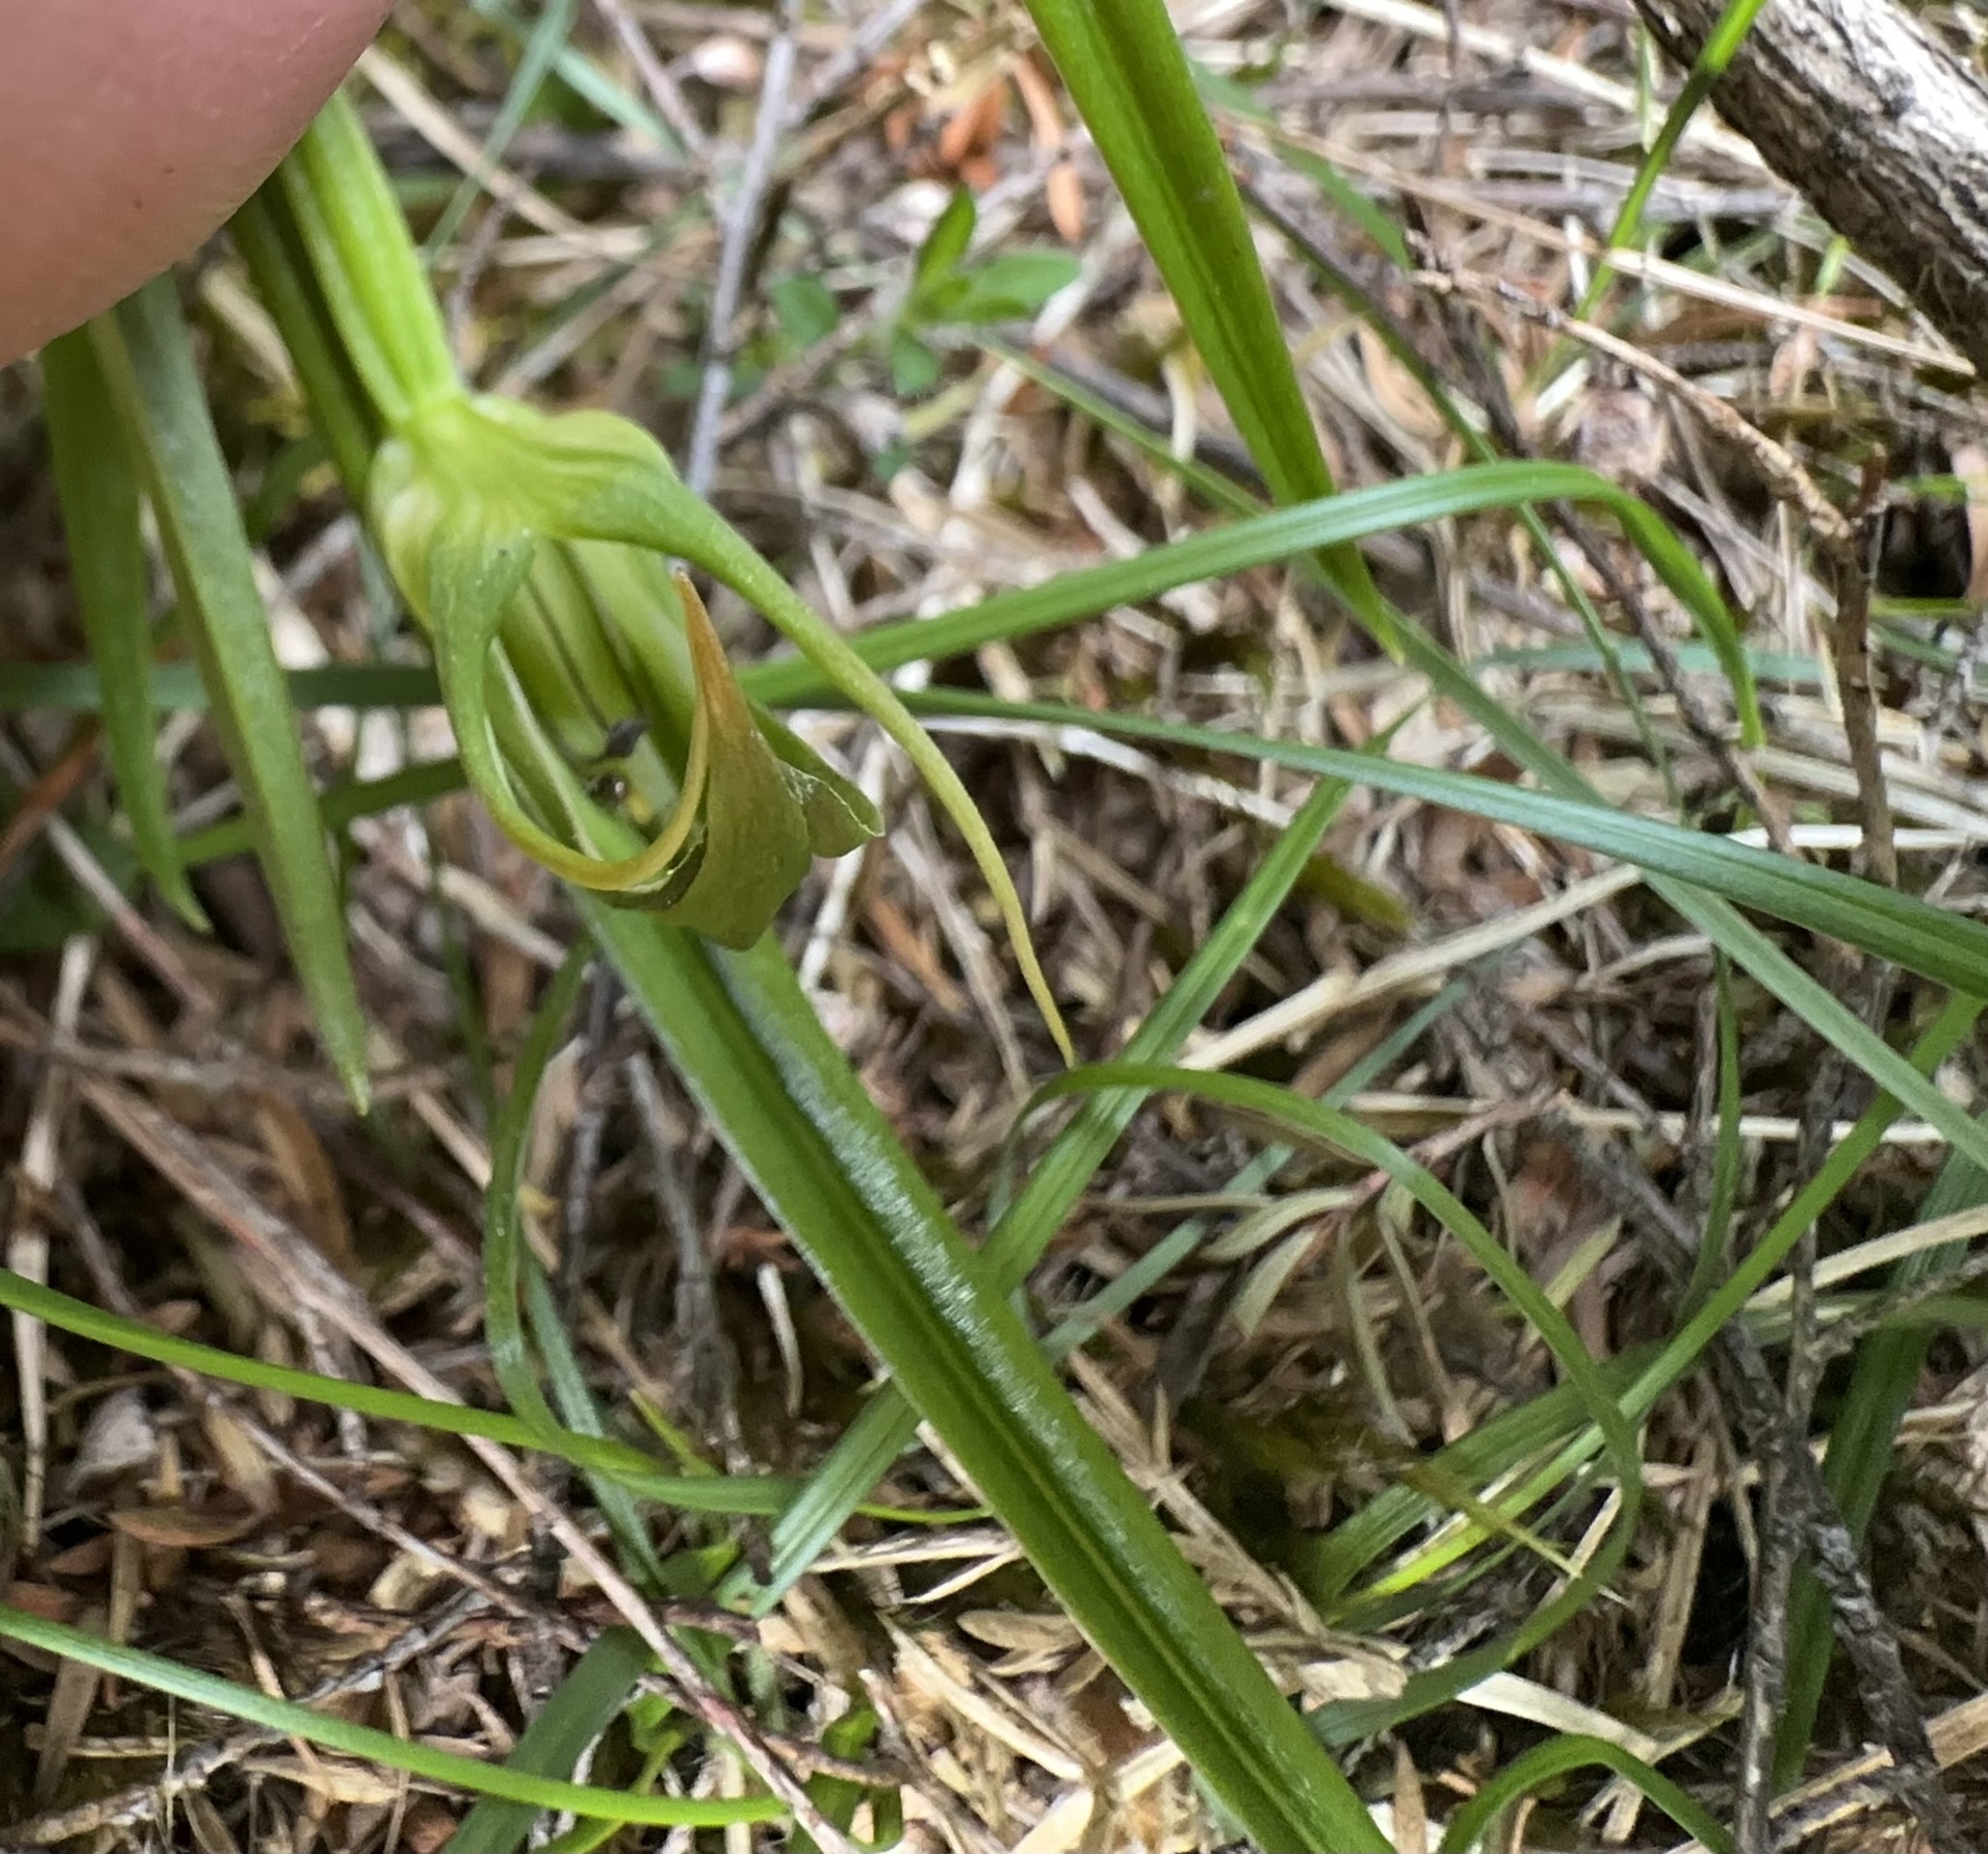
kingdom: Plantae
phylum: Tracheophyta
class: Liliopsida
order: Asparagales
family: Orchidaceae
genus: Pterostylis
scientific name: Pterostylis graminea
